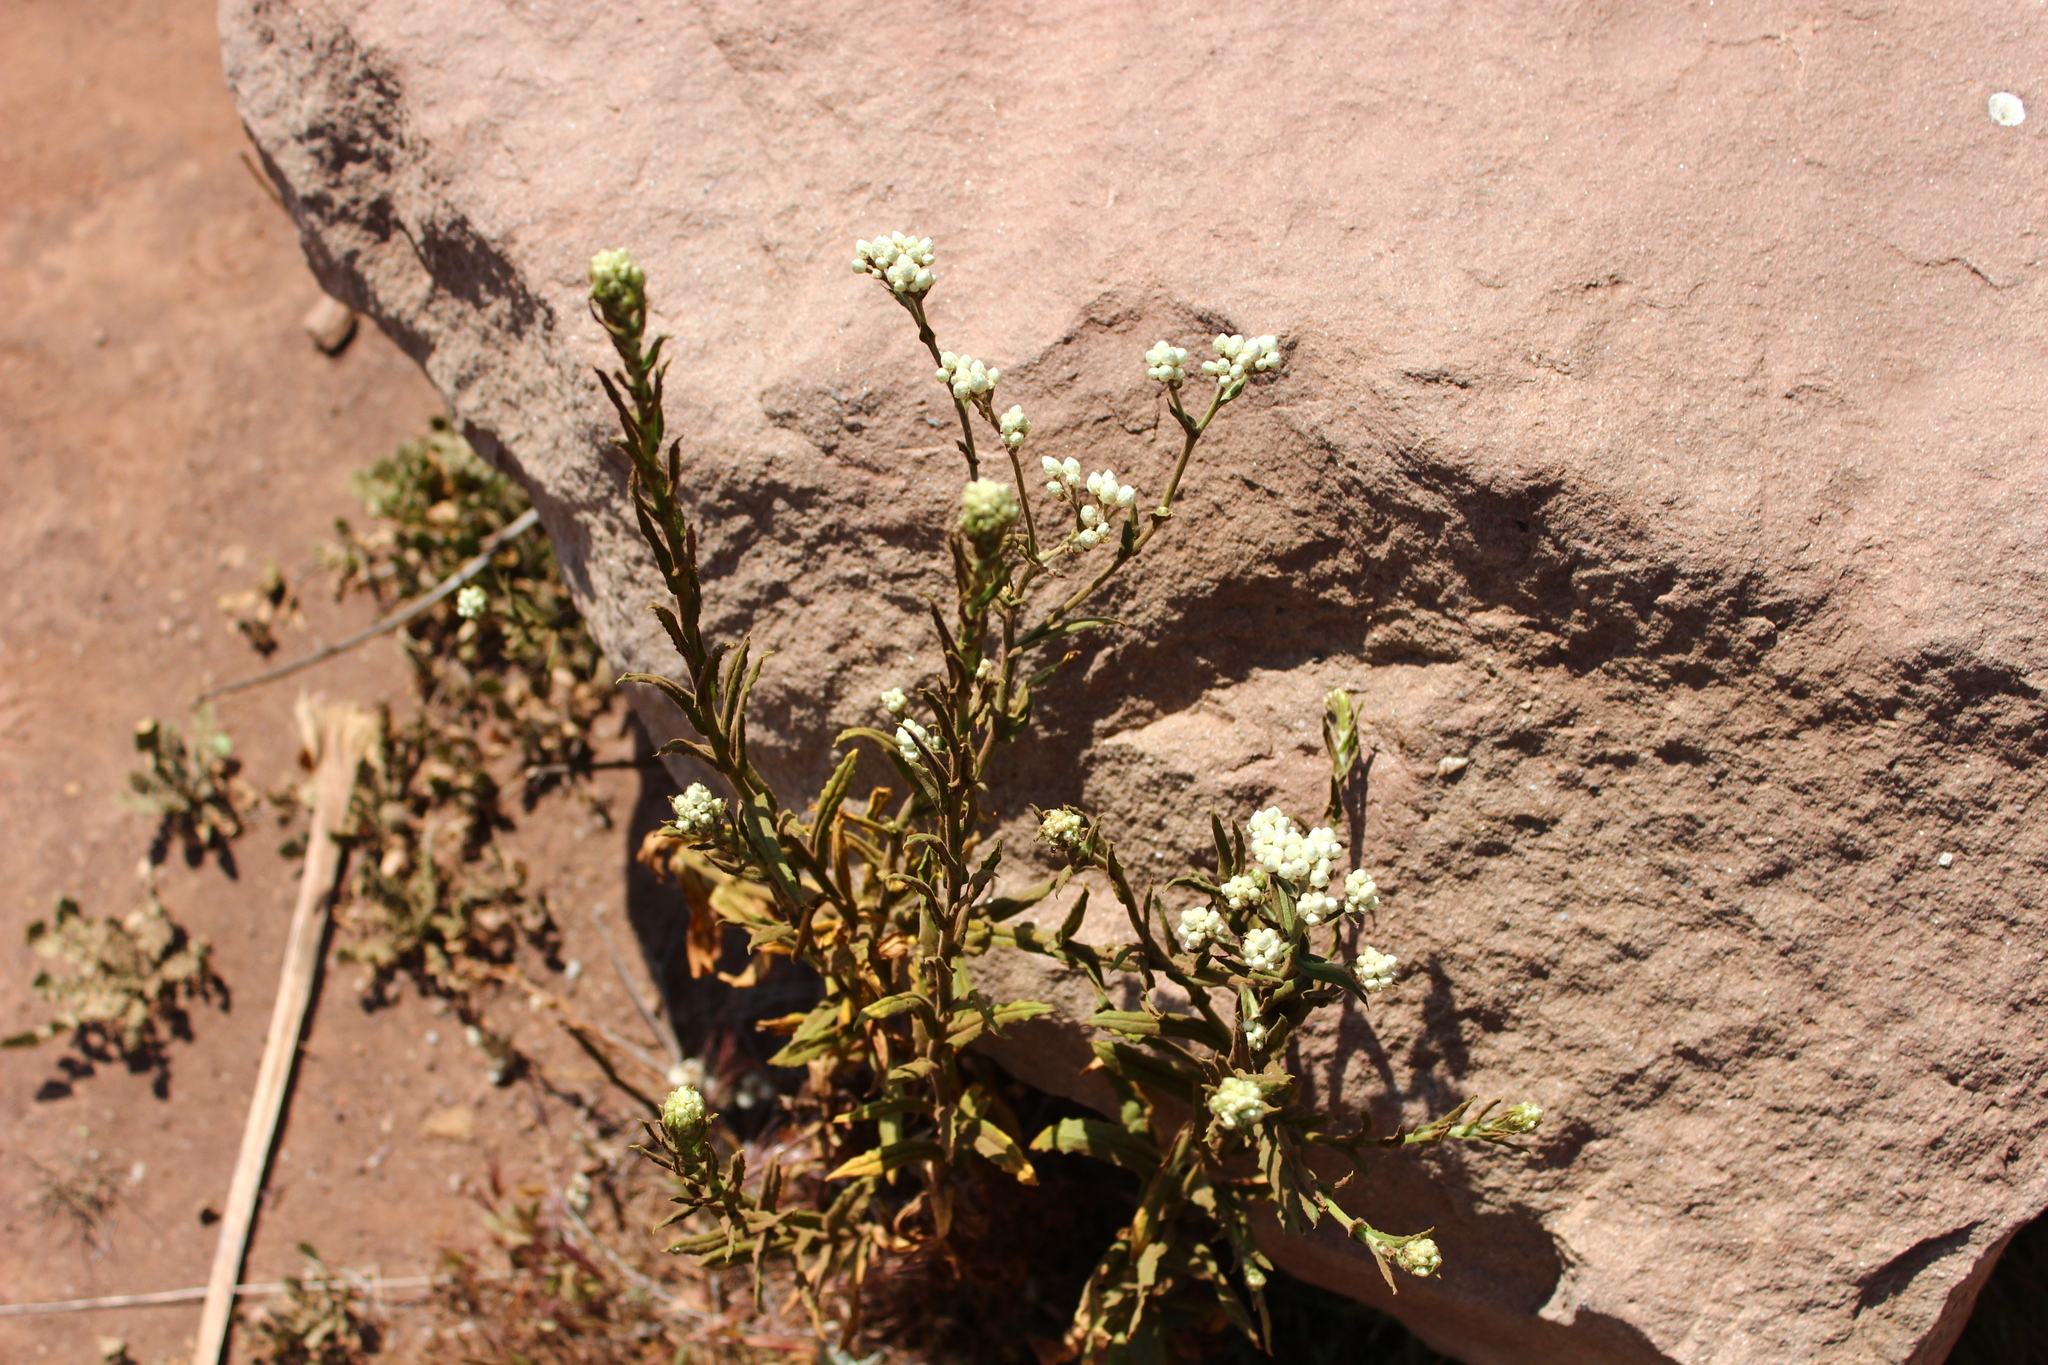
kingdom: Plantae
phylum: Tracheophyta
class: Magnoliopsida
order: Asterales
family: Asteraceae
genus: Pseudognaphalium
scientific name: Pseudognaphalium californicum
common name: California rabbit-tobacco
